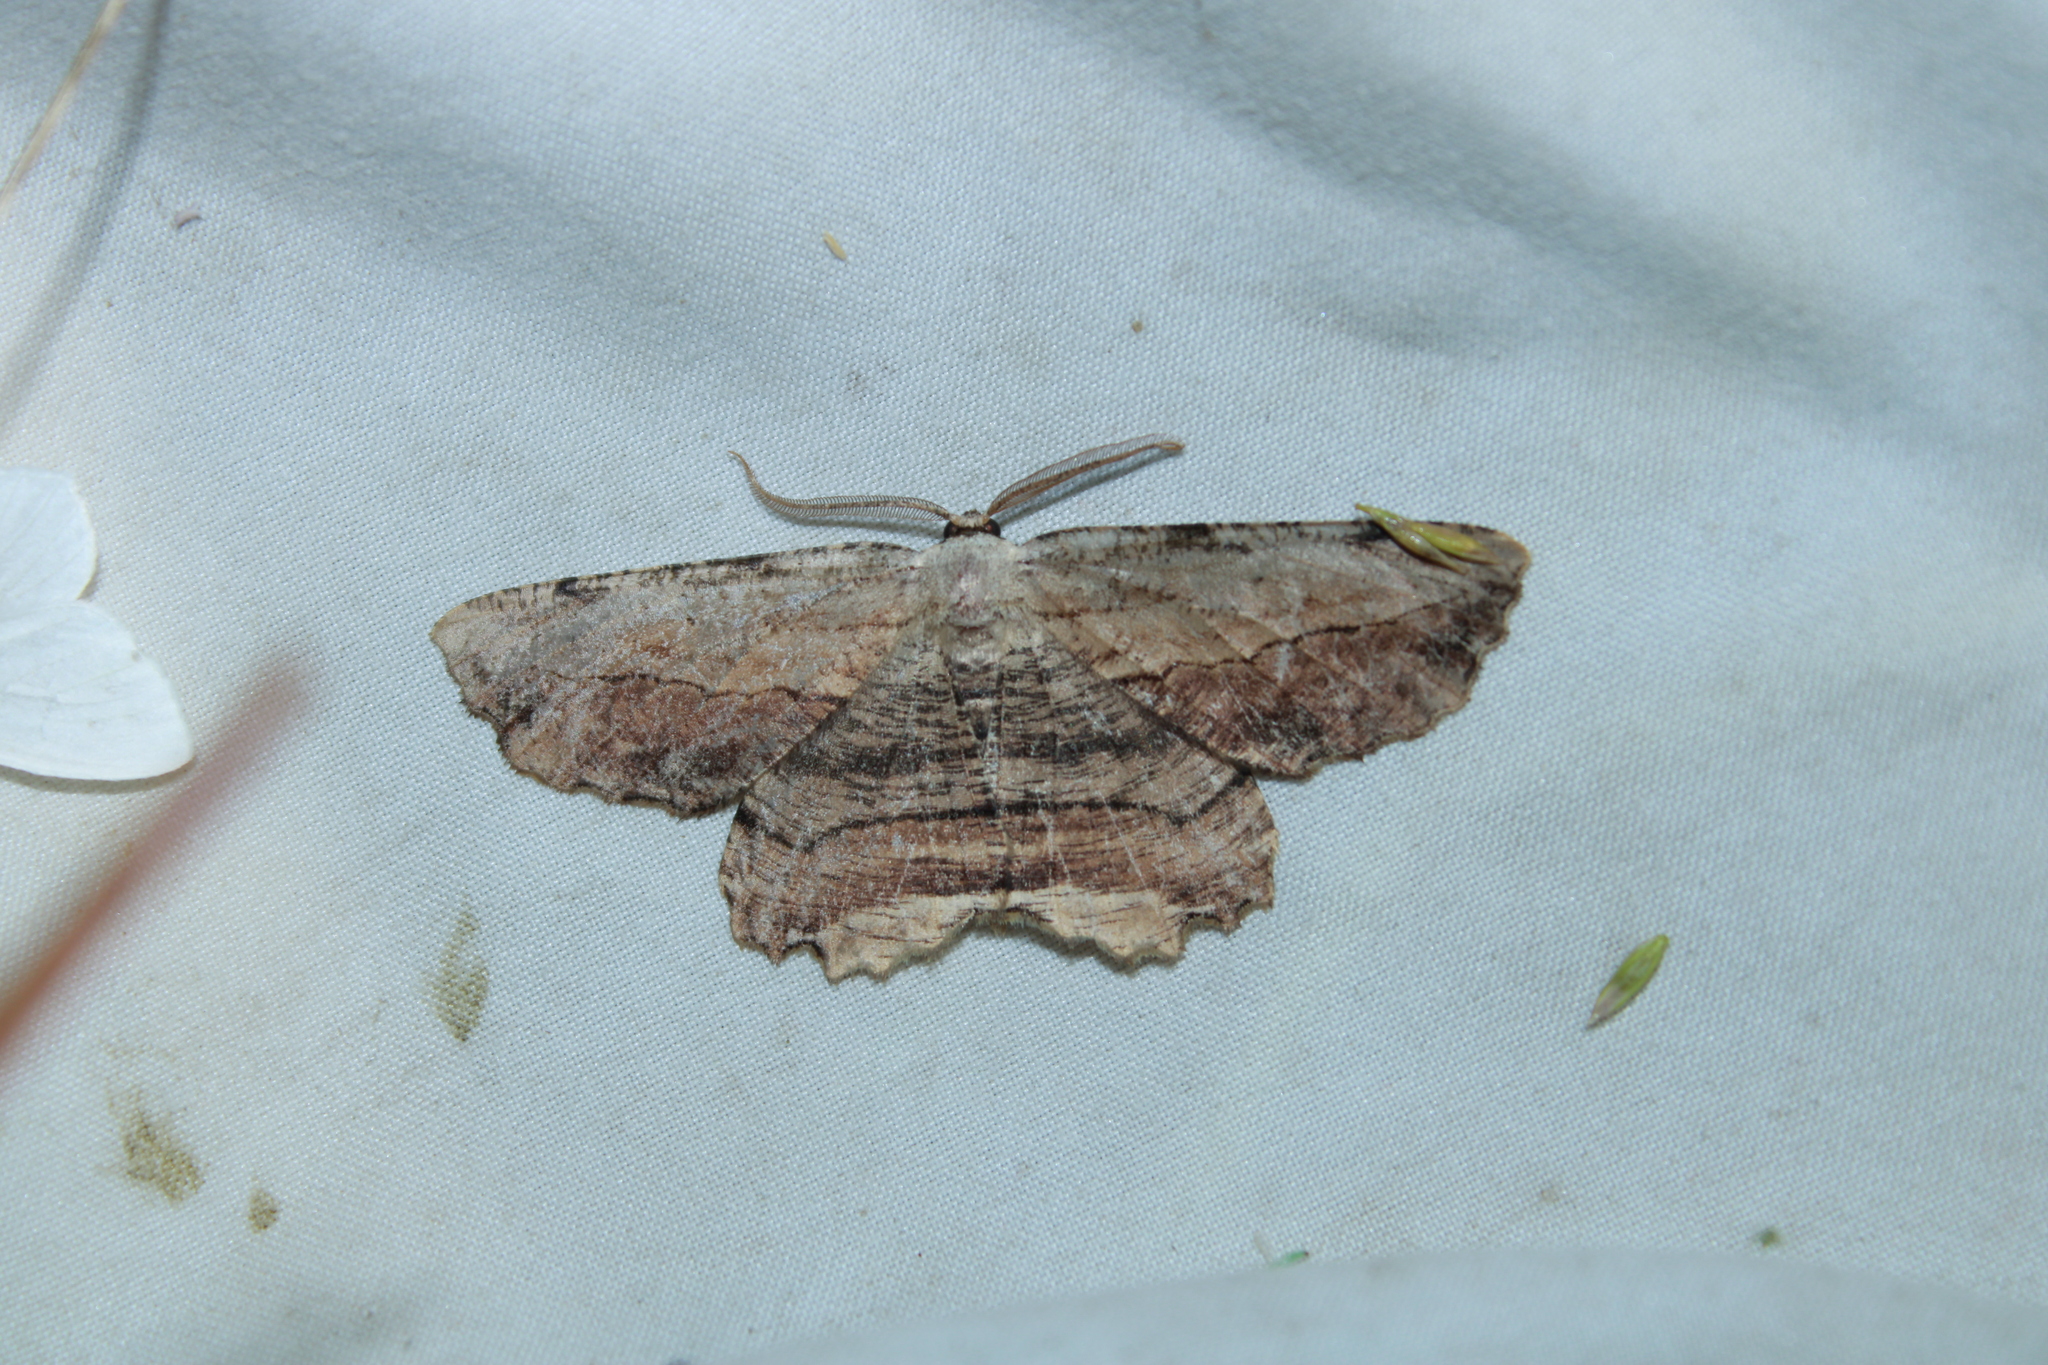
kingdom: Animalia
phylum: Arthropoda
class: Insecta
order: Lepidoptera
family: Geometridae
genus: Lytrosis
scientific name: Lytrosis unitaria
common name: Common lytrosis
